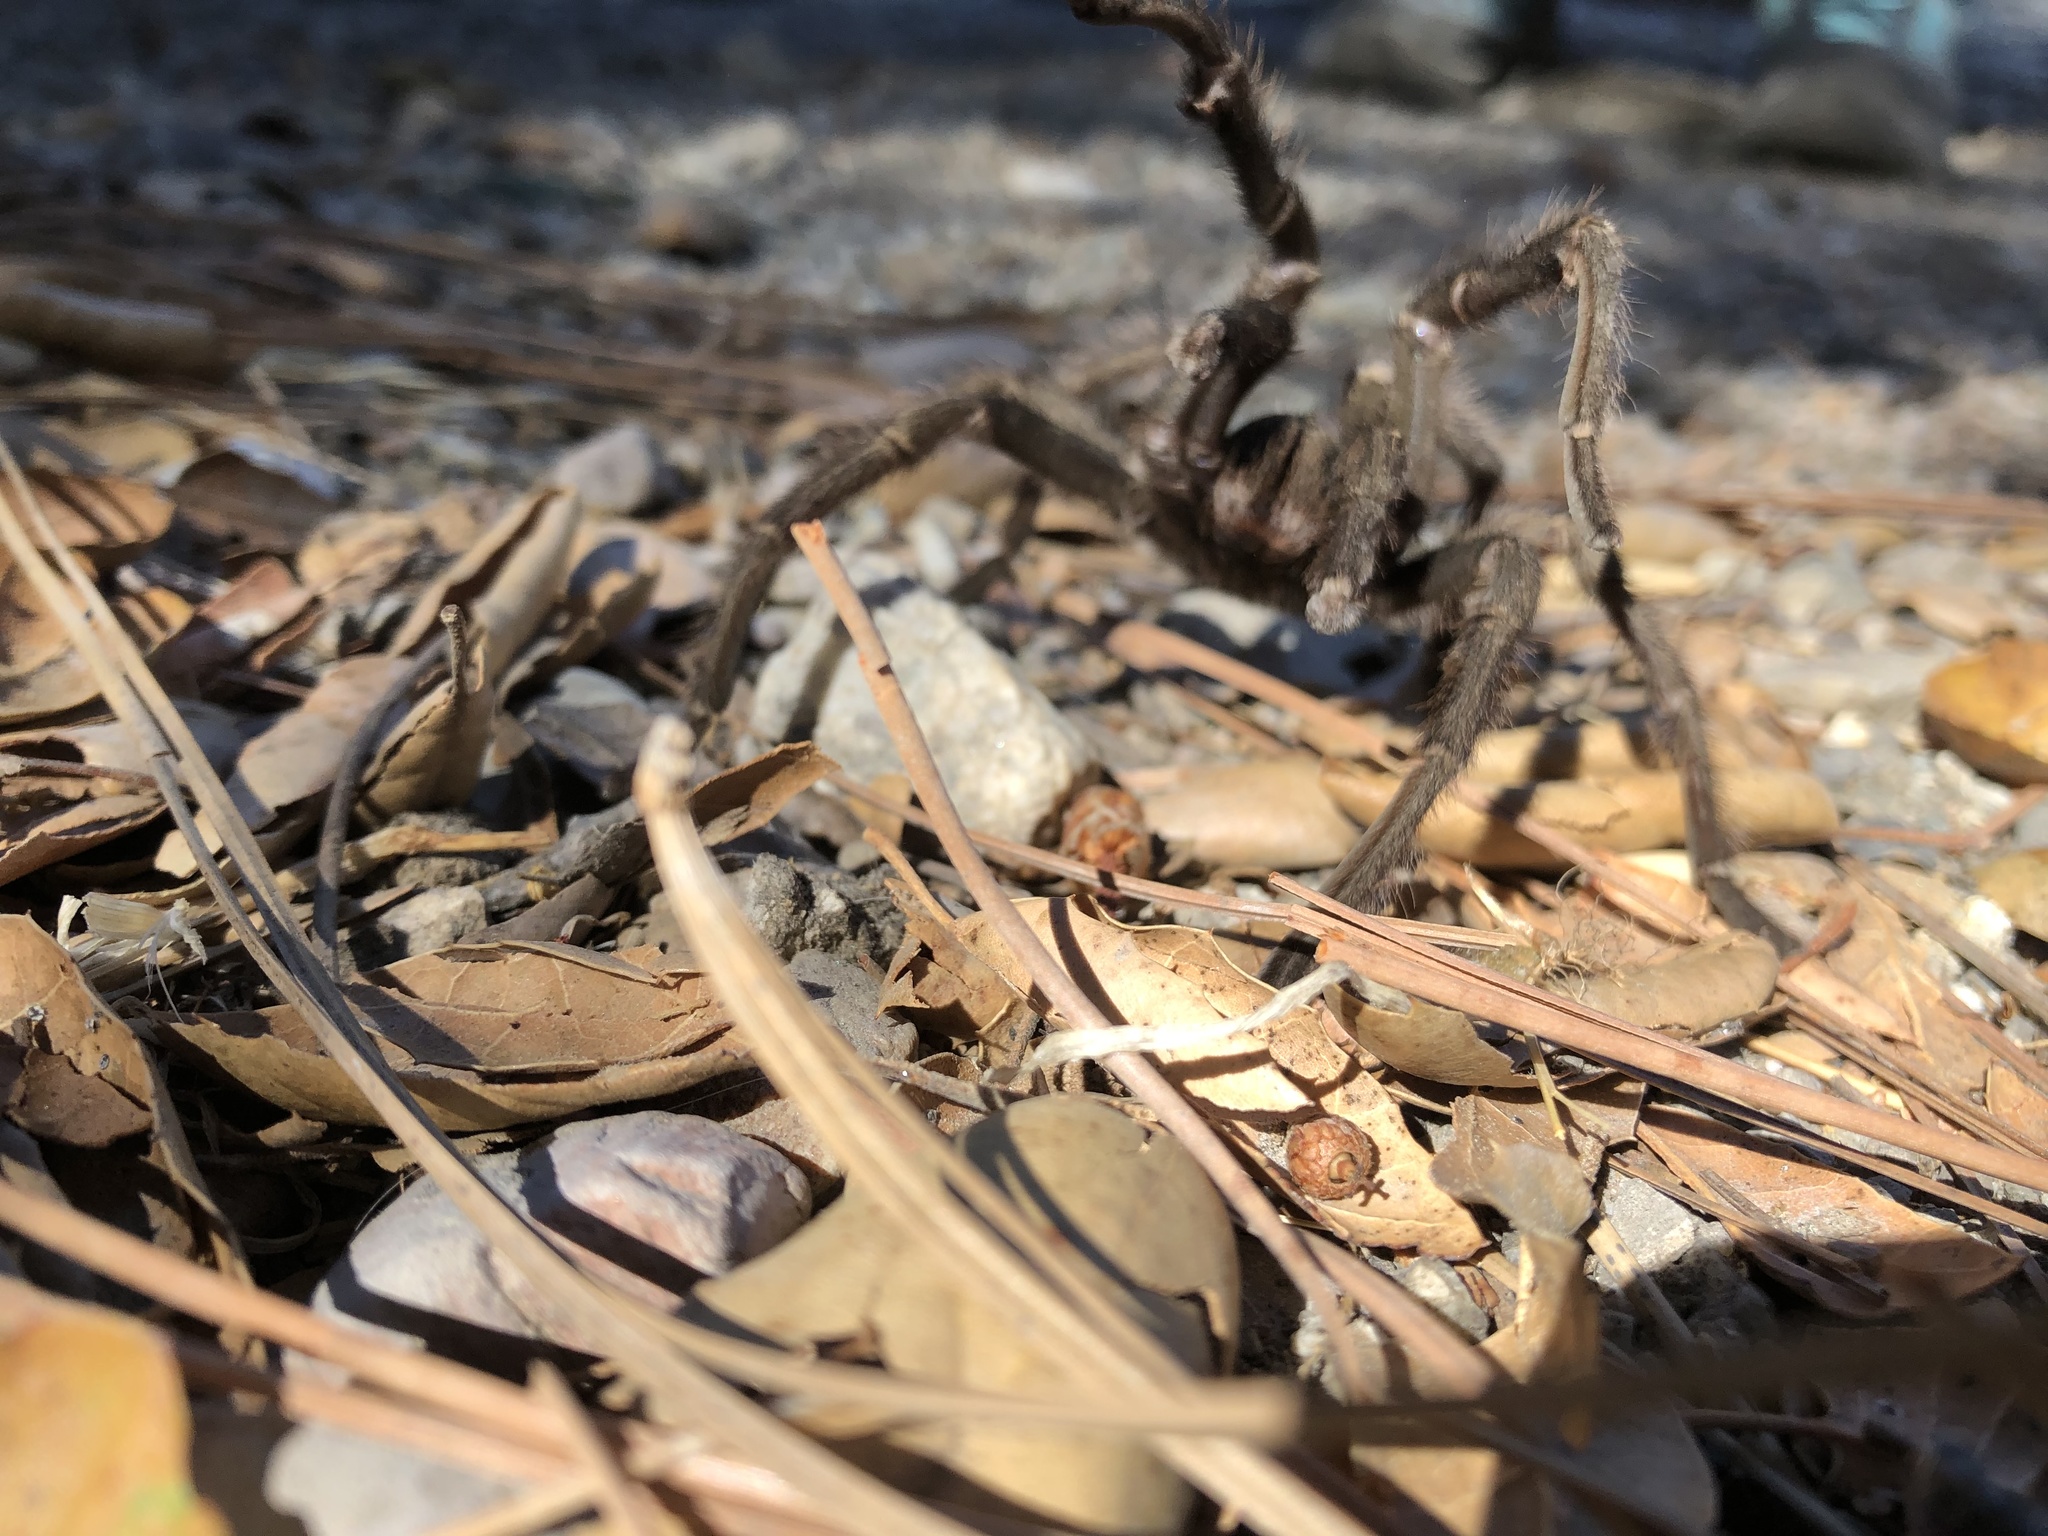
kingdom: Animalia
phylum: Arthropoda
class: Arachnida
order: Araneae
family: Theraphosidae
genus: Aphonopelma
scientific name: Aphonopelma iodius
